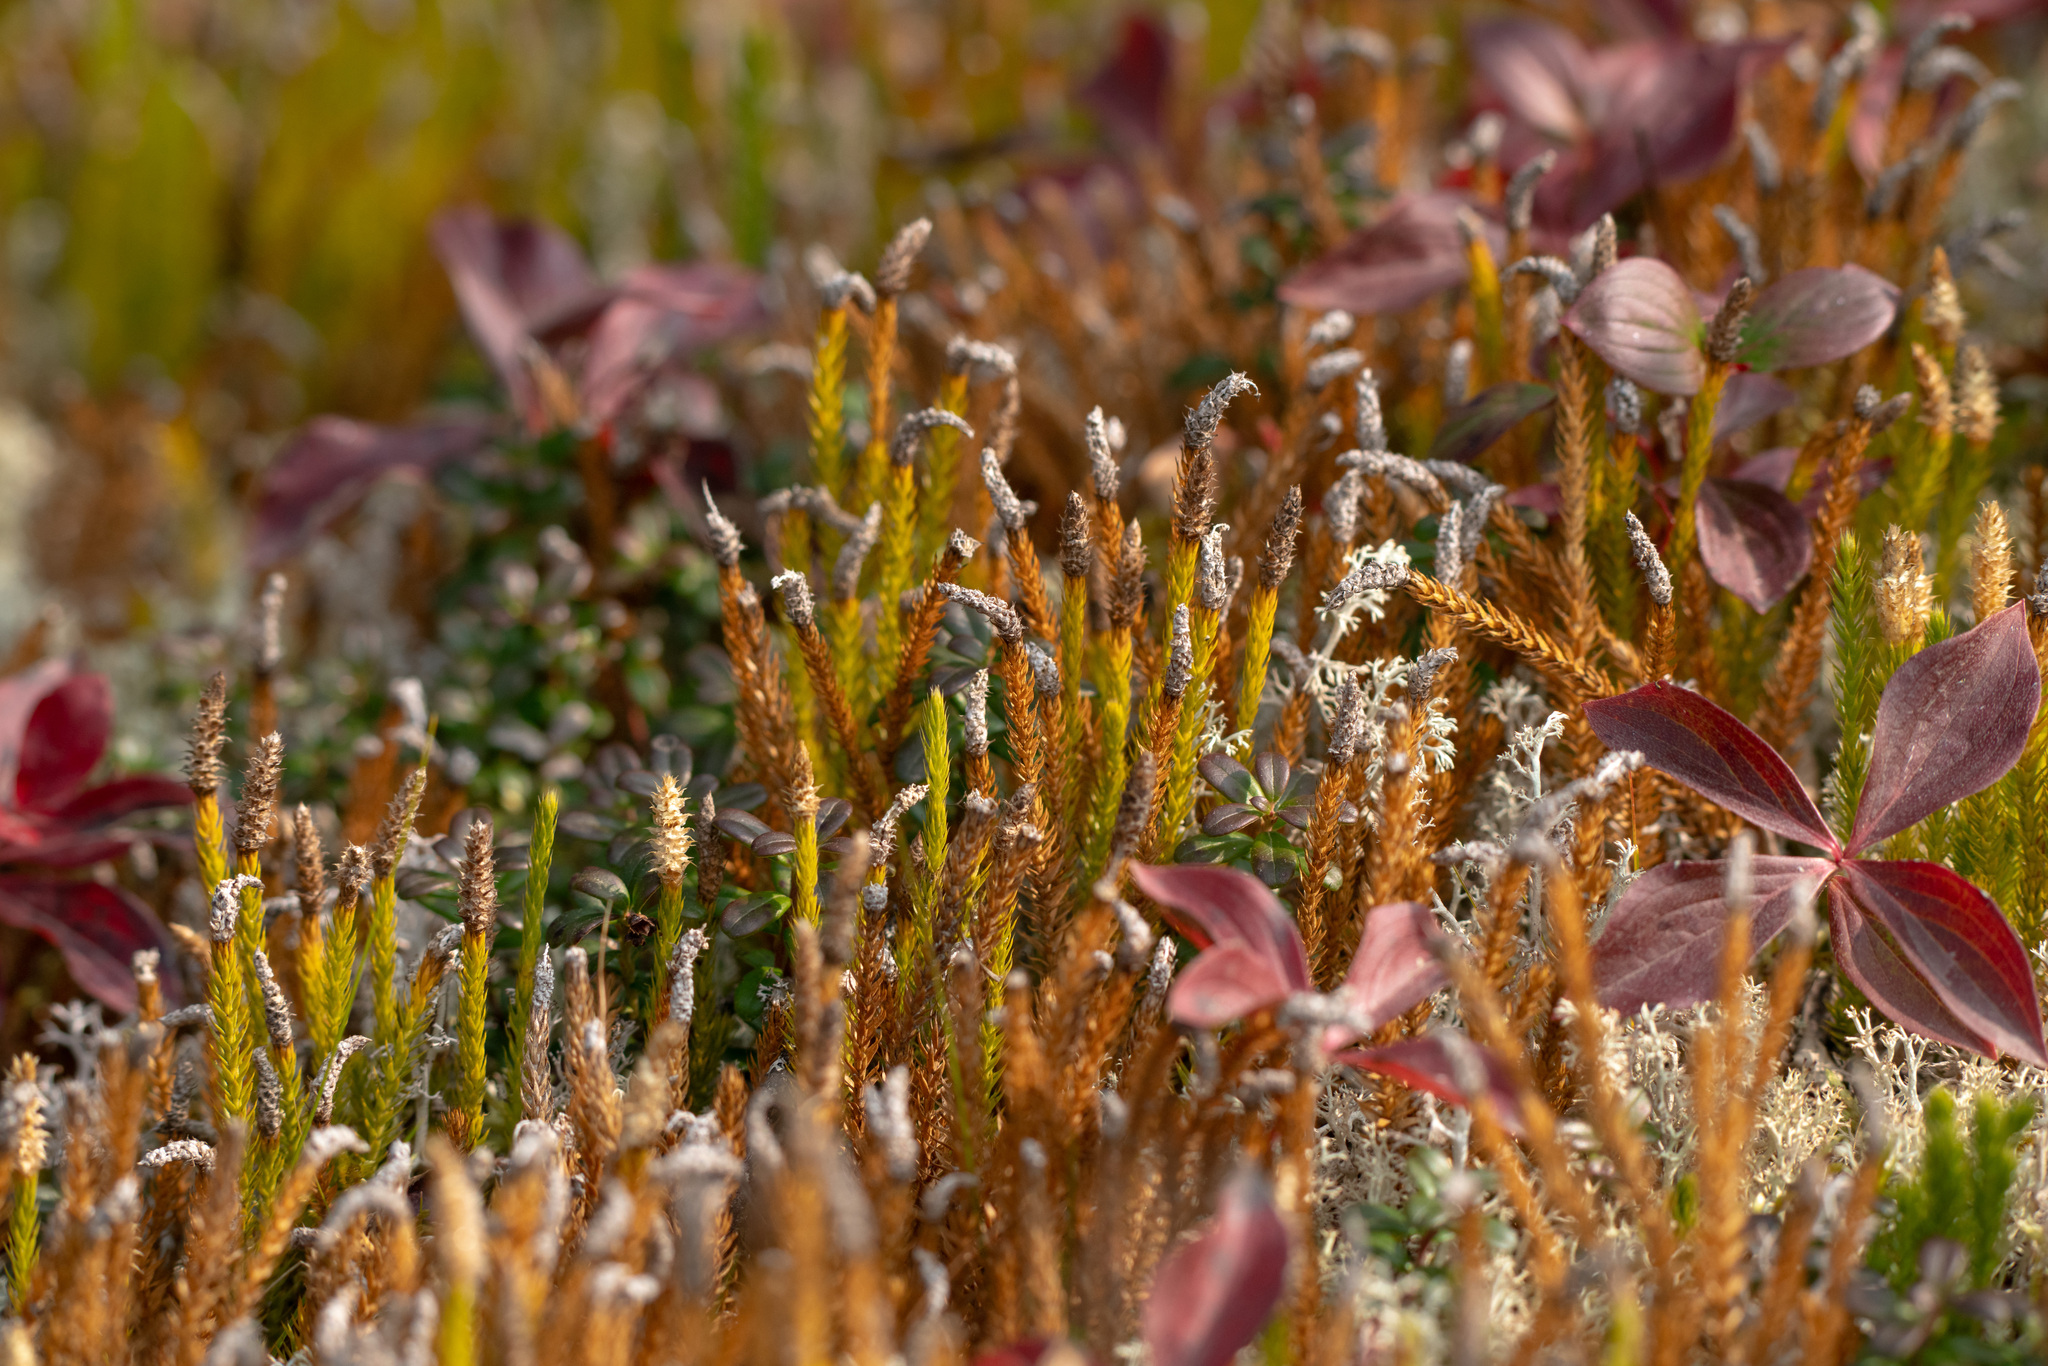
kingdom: Plantae
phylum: Tracheophyta
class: Lycopodiopsida
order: Lycopodiales
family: Lycopodiaceae
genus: Spinulum
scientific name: Spinulum annotinum
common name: Interrupted club-moss
